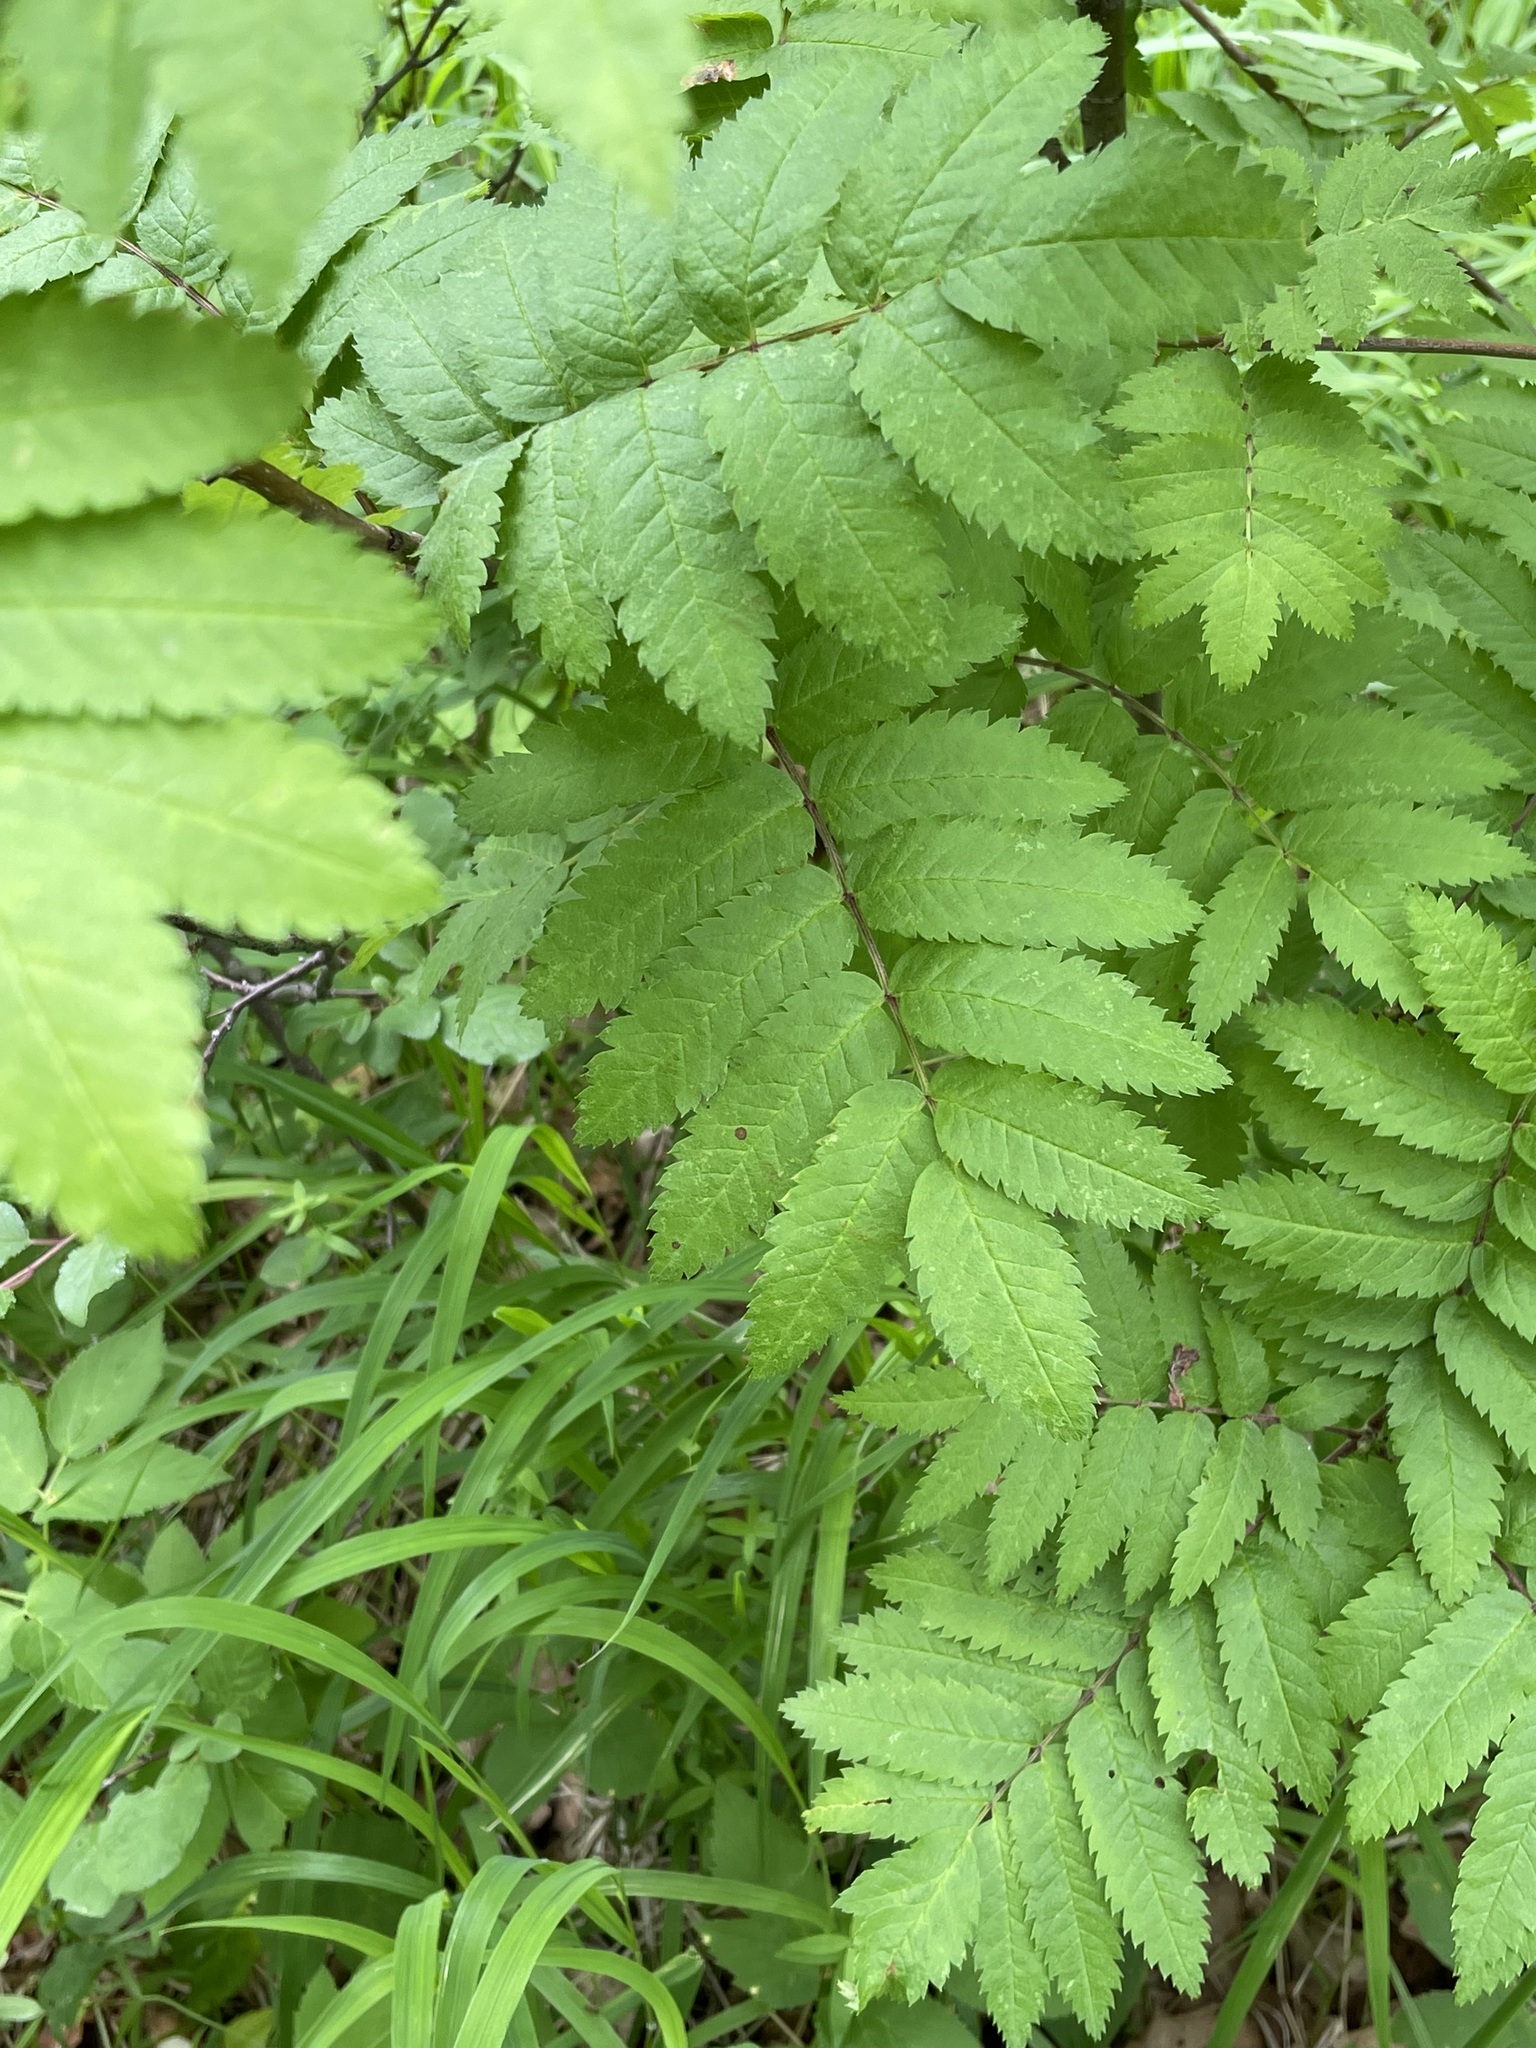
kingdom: Plantae
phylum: Tracheophyta
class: Magnoliopsida
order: Rosales
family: Rosaceae
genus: Sorbus
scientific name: Sorbus aucuparia
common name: Rowan
